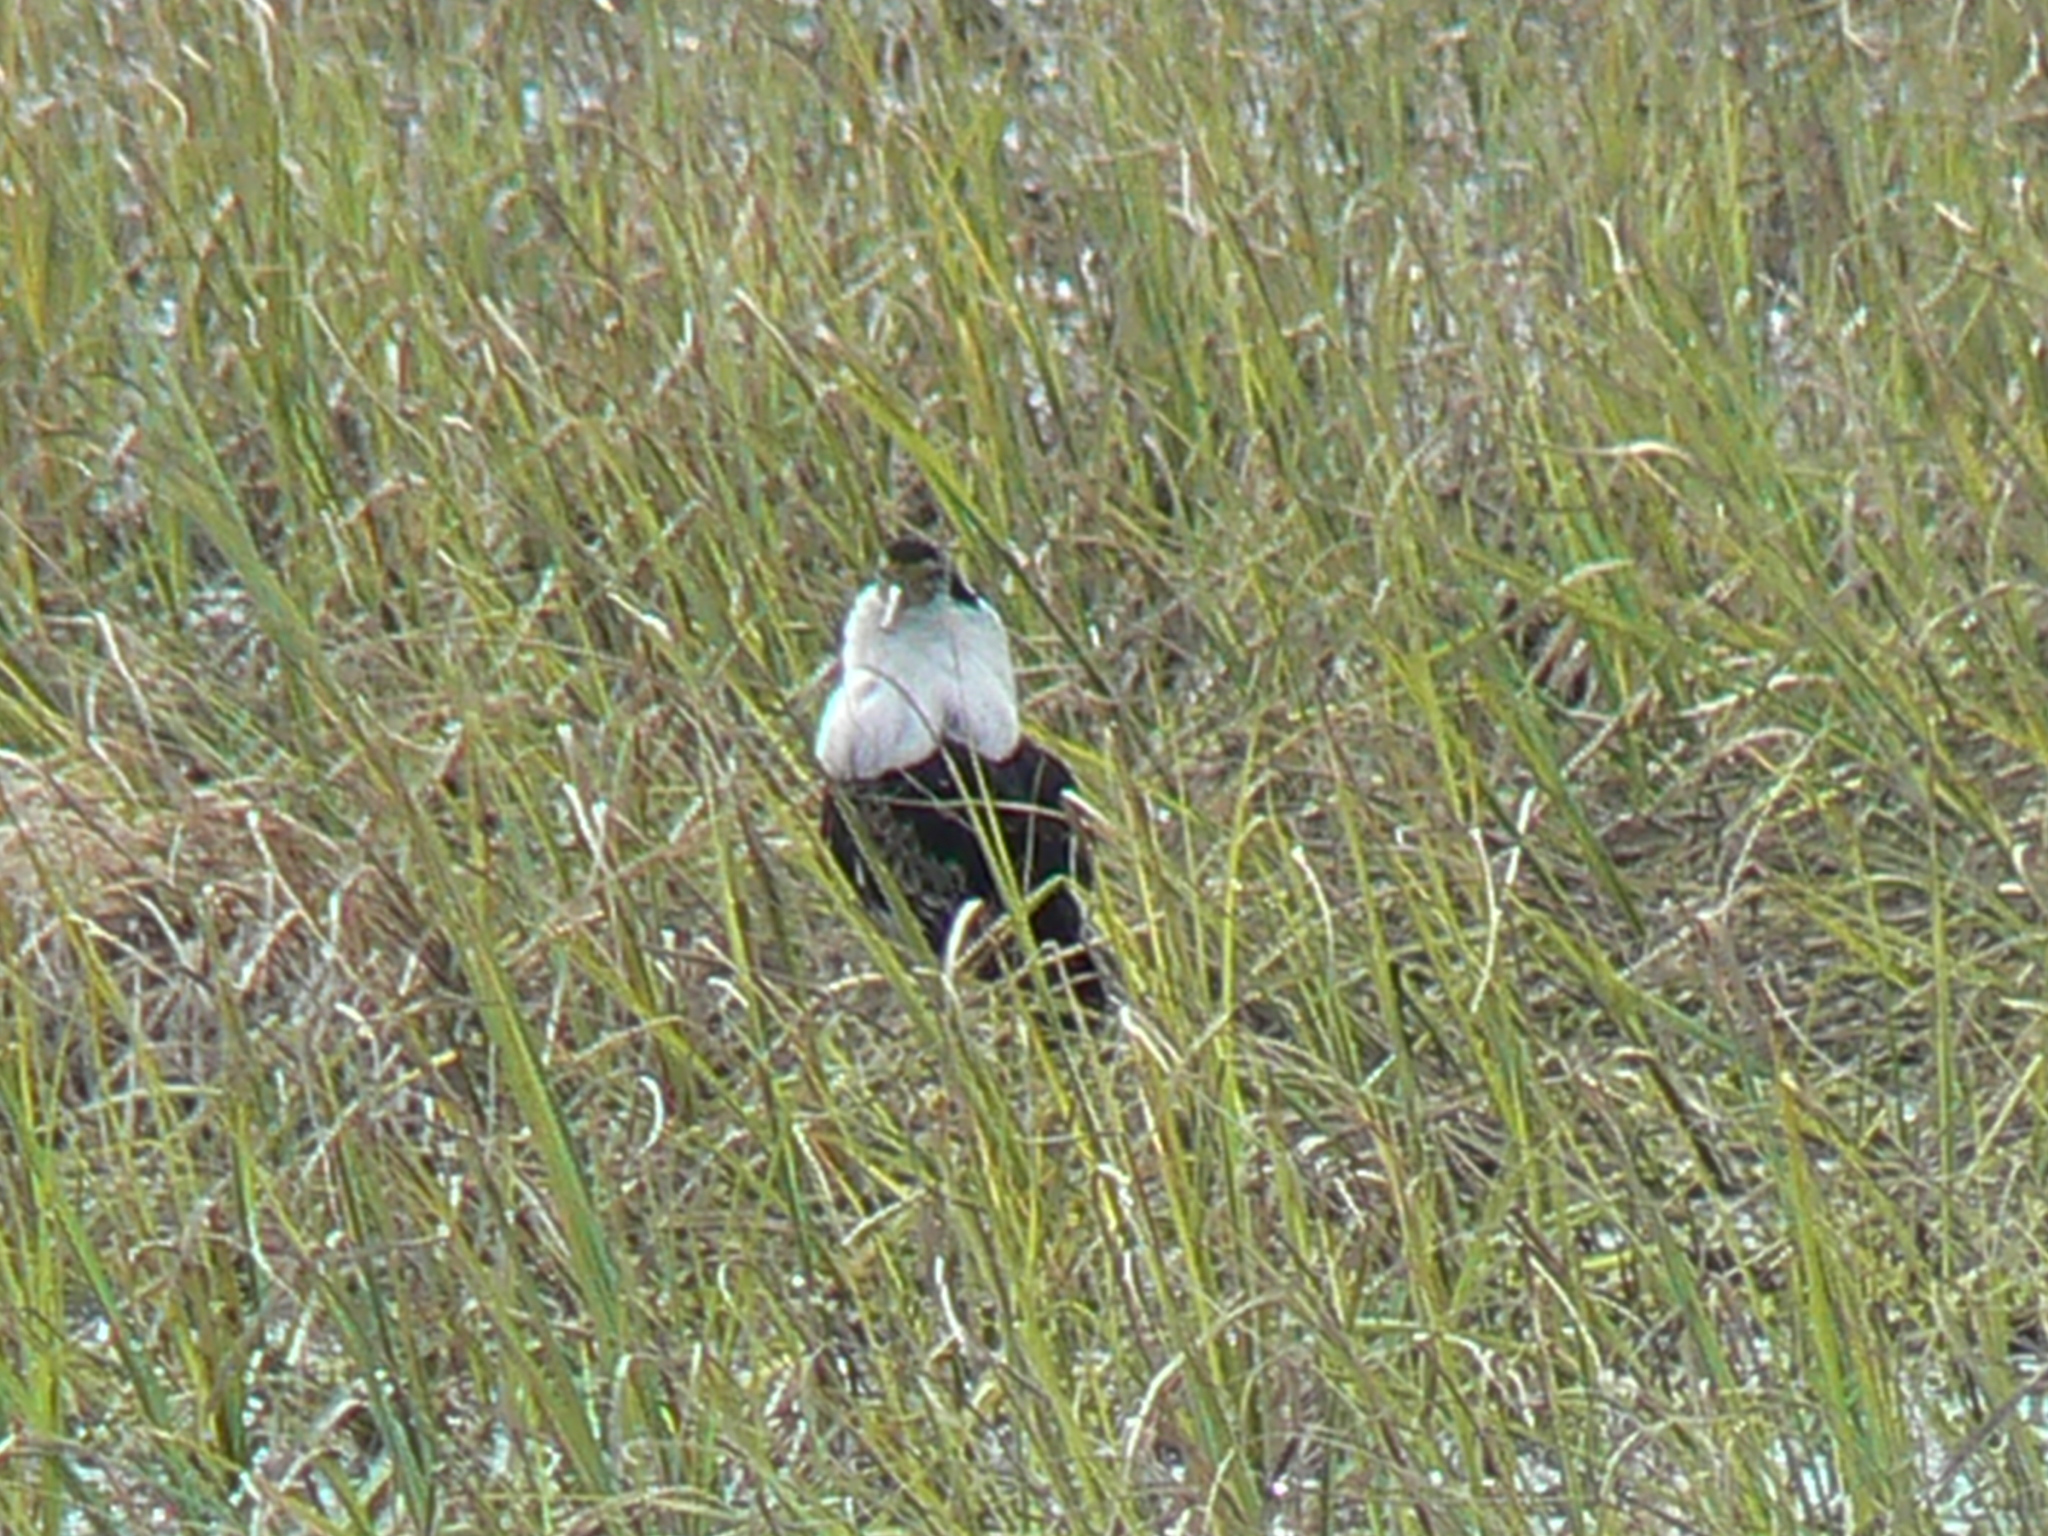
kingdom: Animalia
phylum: Chordata
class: Aves
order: Charadriiformes
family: Scolopacidae
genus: Calidris
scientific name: Calidris pugnax
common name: Ruff
